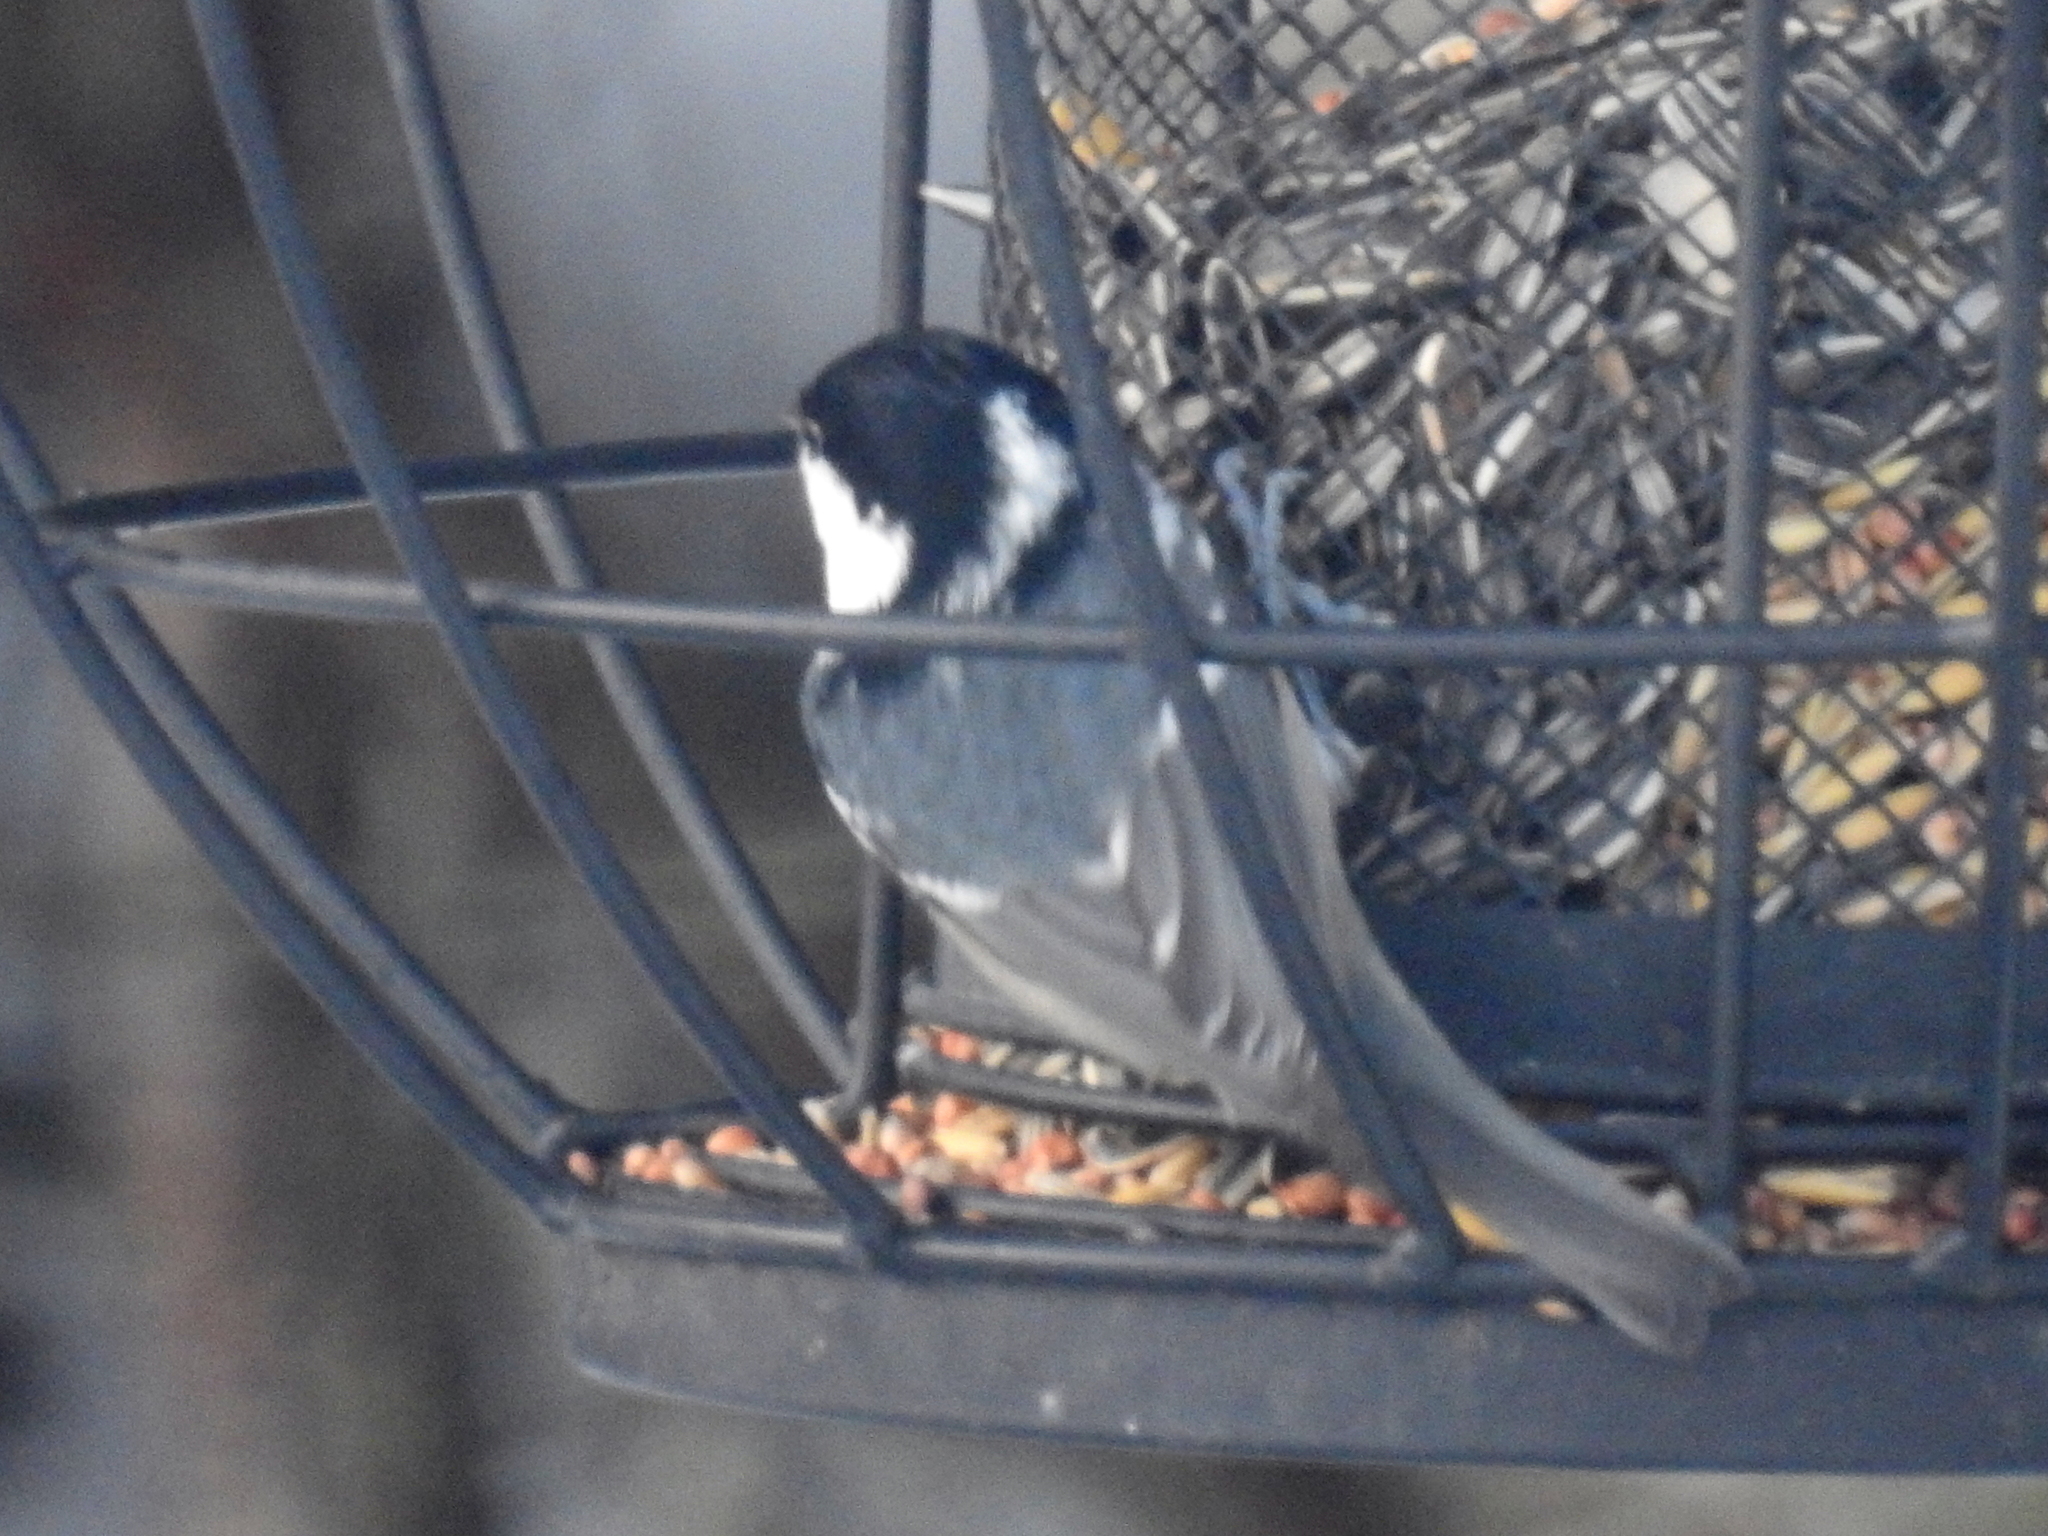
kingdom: Animalia
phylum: Chordata
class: Aves
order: Passeriformes
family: Paridae
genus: Periparus
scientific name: Periparus ater
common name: Coal tit
